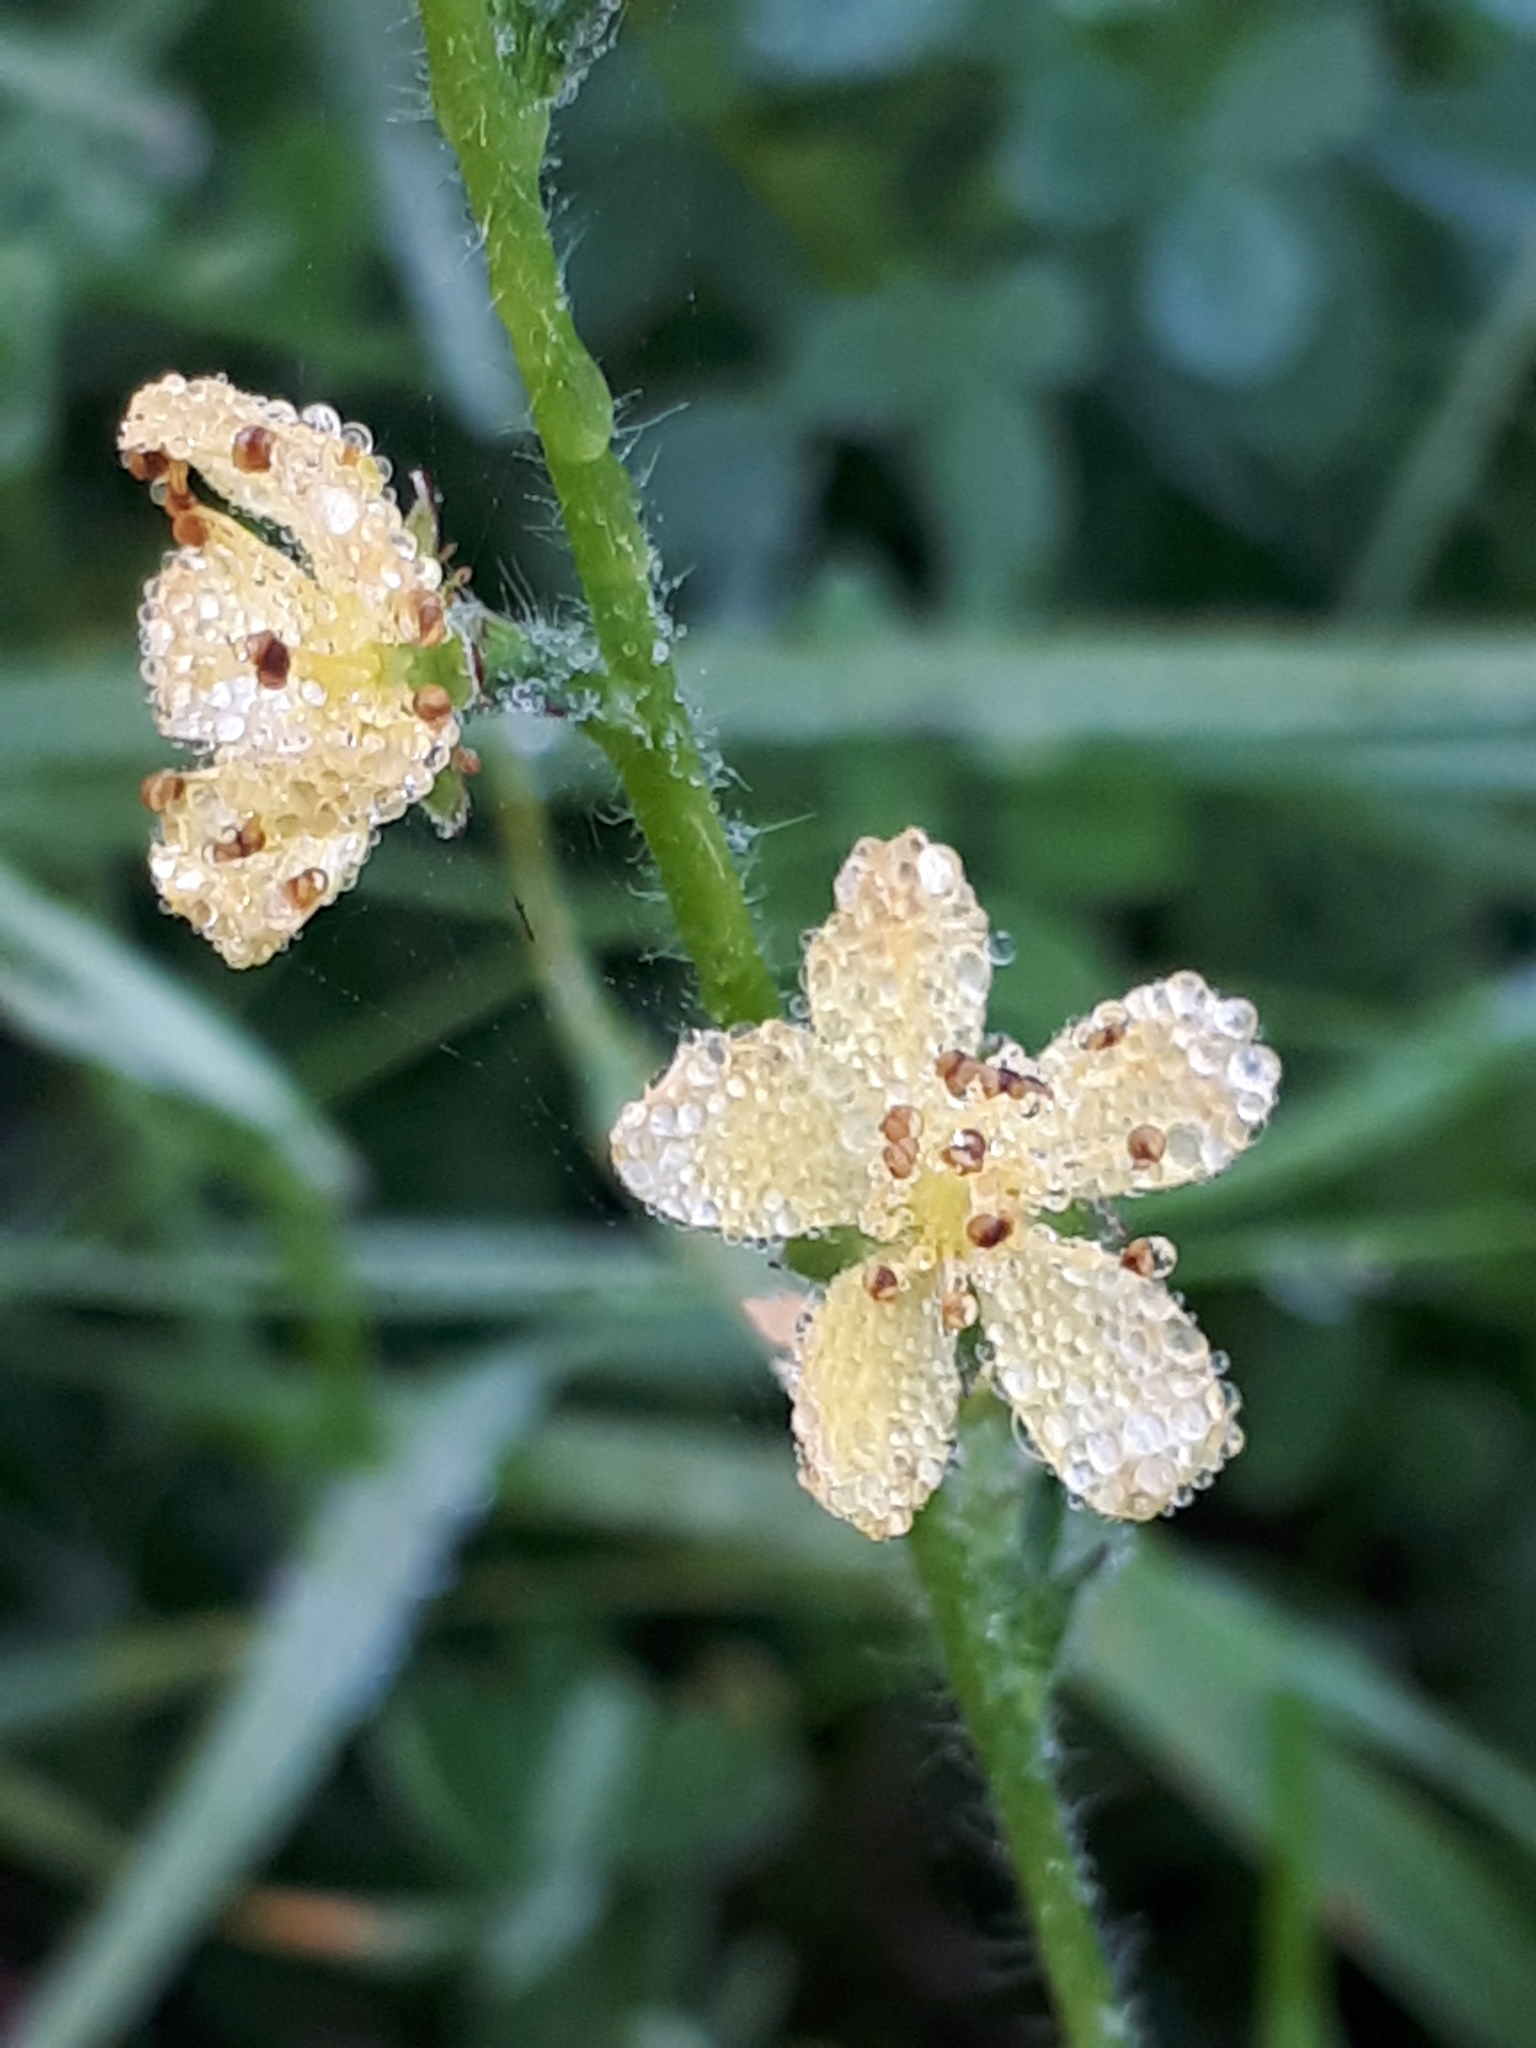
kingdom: Plantae
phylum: Tracheophyta
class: Magnoliopsida
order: Rosales
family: Rosaceae
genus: Agrimonia
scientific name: Agrimonia eupatoria
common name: Agrimony
